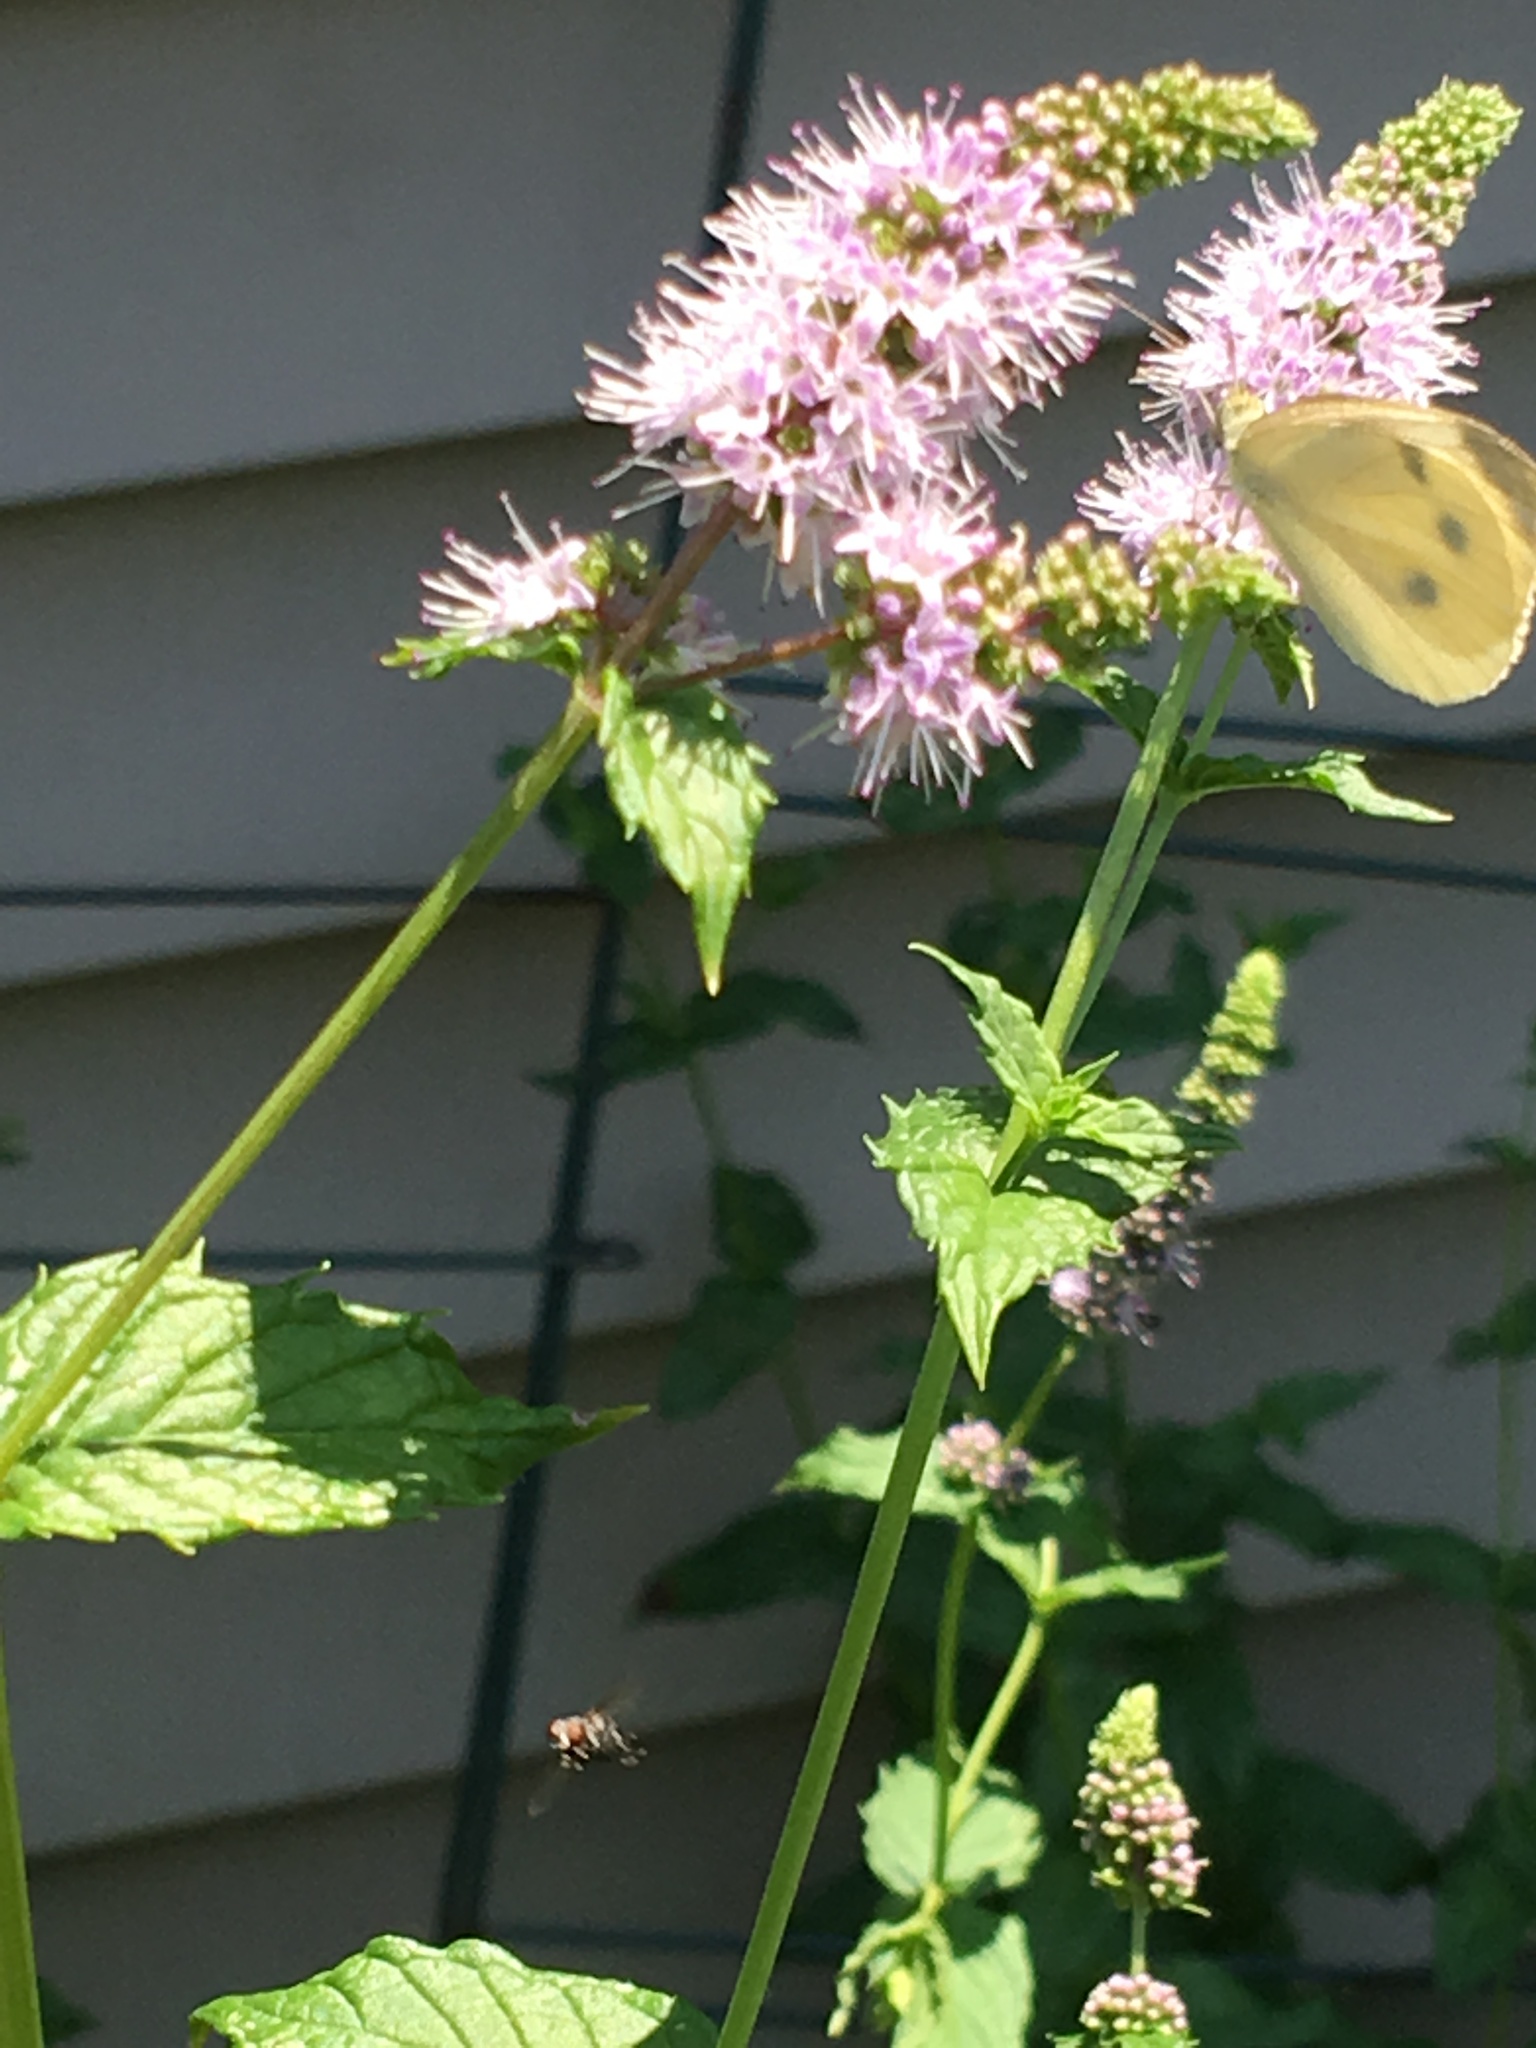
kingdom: Animalia
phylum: Arthropoda
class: Insecta
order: Lepidoptera
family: Pieridae
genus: Pieris
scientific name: Pieris rapae
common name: Small white
